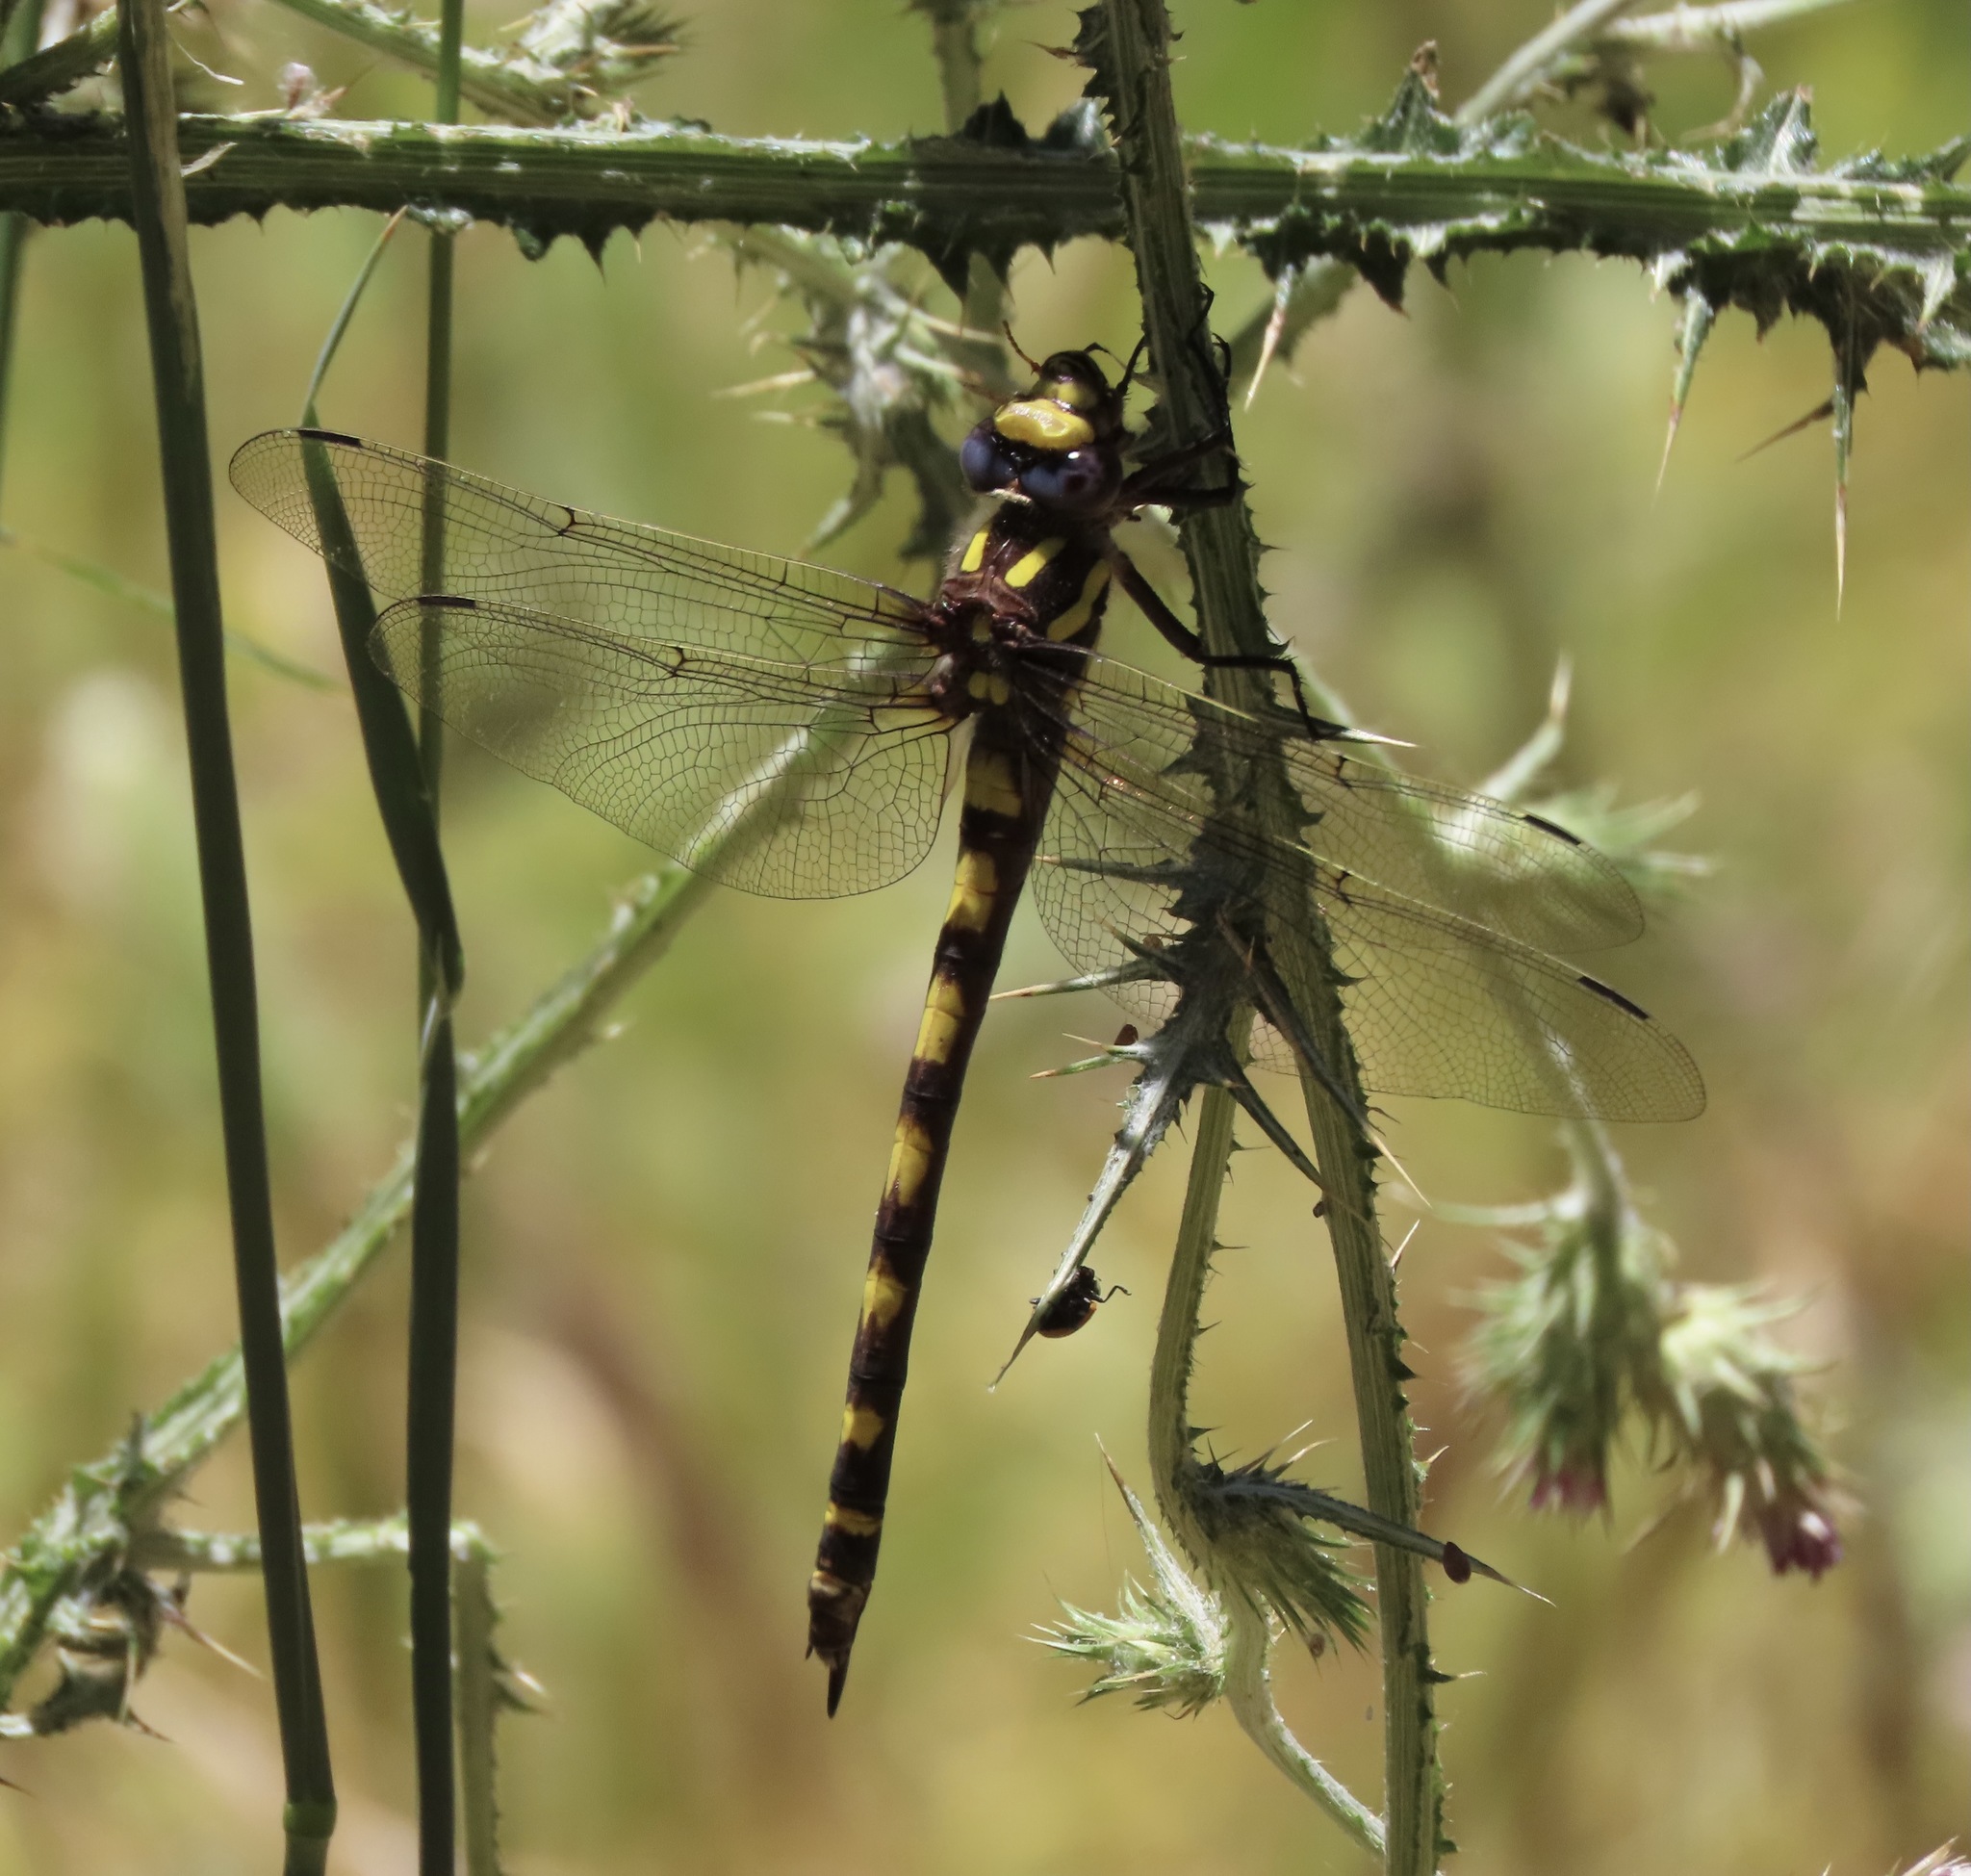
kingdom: Animalia
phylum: Arthropoda
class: Insecta
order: Odonata
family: Cordulegastridae
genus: Cordulegaster
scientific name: Cordulegaster dorsalis
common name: Pacific spiketail
